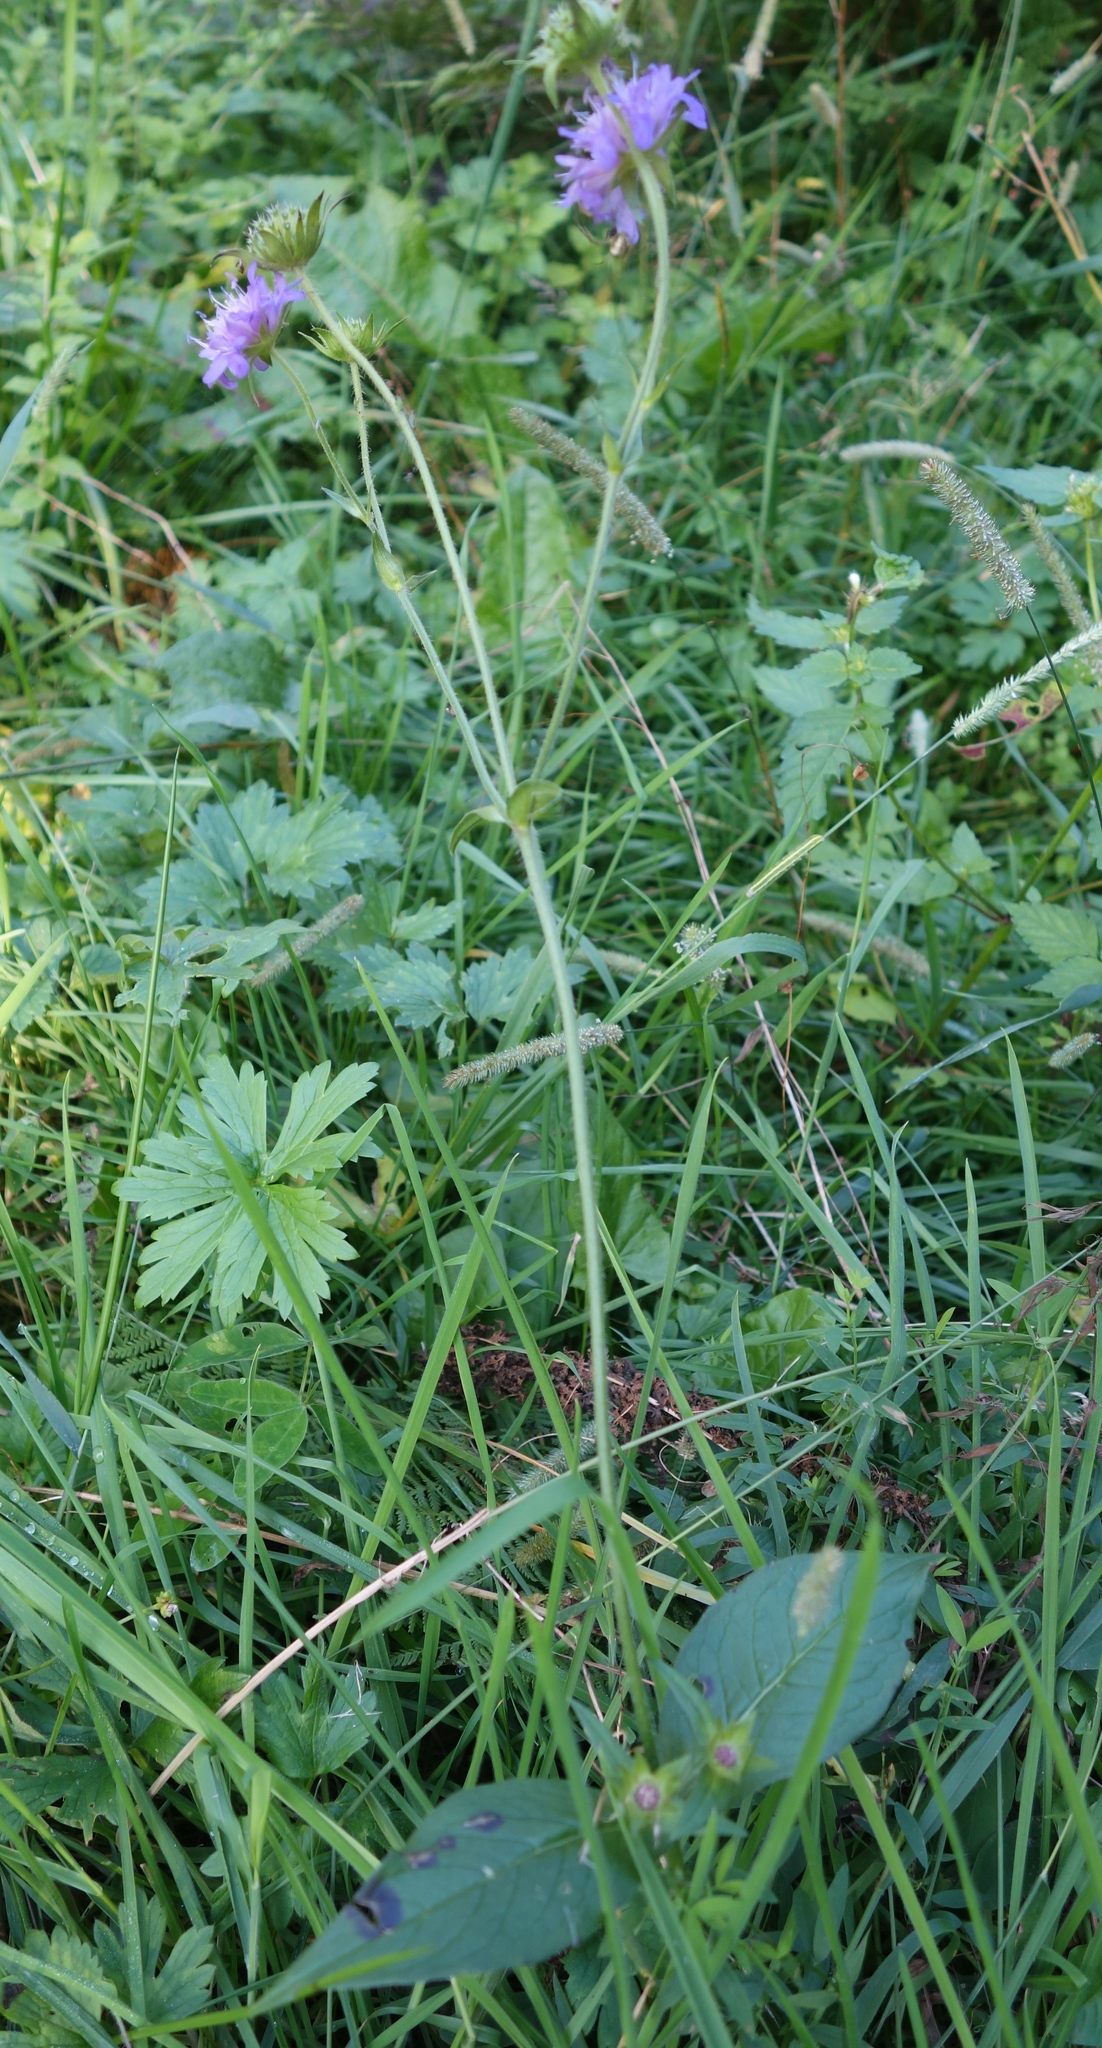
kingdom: Plantae
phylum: Tracheophyta
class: Magnoliopsida
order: Dipsacales
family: Caprifoliaceae
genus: Knautia
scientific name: Knautia dipsacifolia
